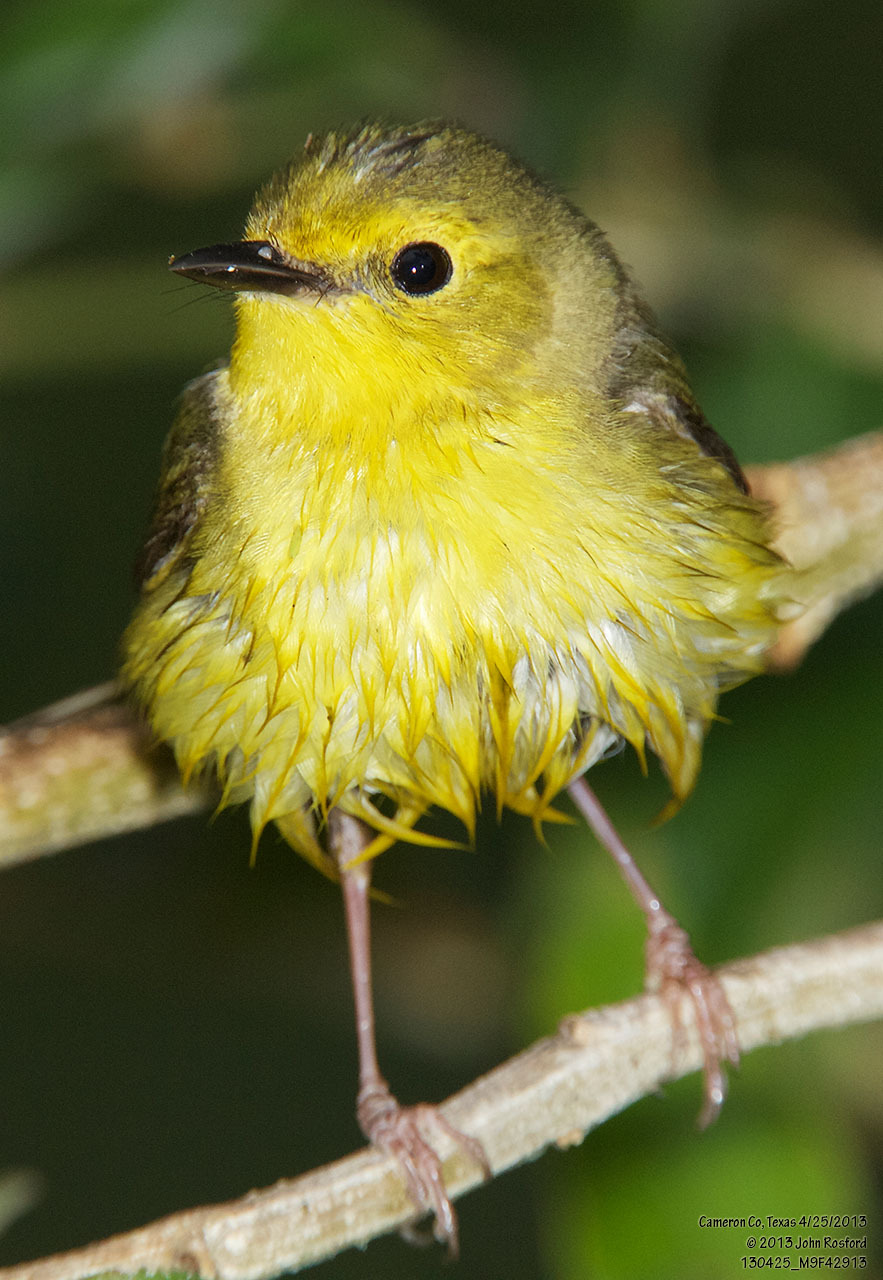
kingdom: Animalia
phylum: Chordata
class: Aves
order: Passeriformes
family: Parulidae
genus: Setophaga
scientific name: Setophaga citrina
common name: Hooded warbler
